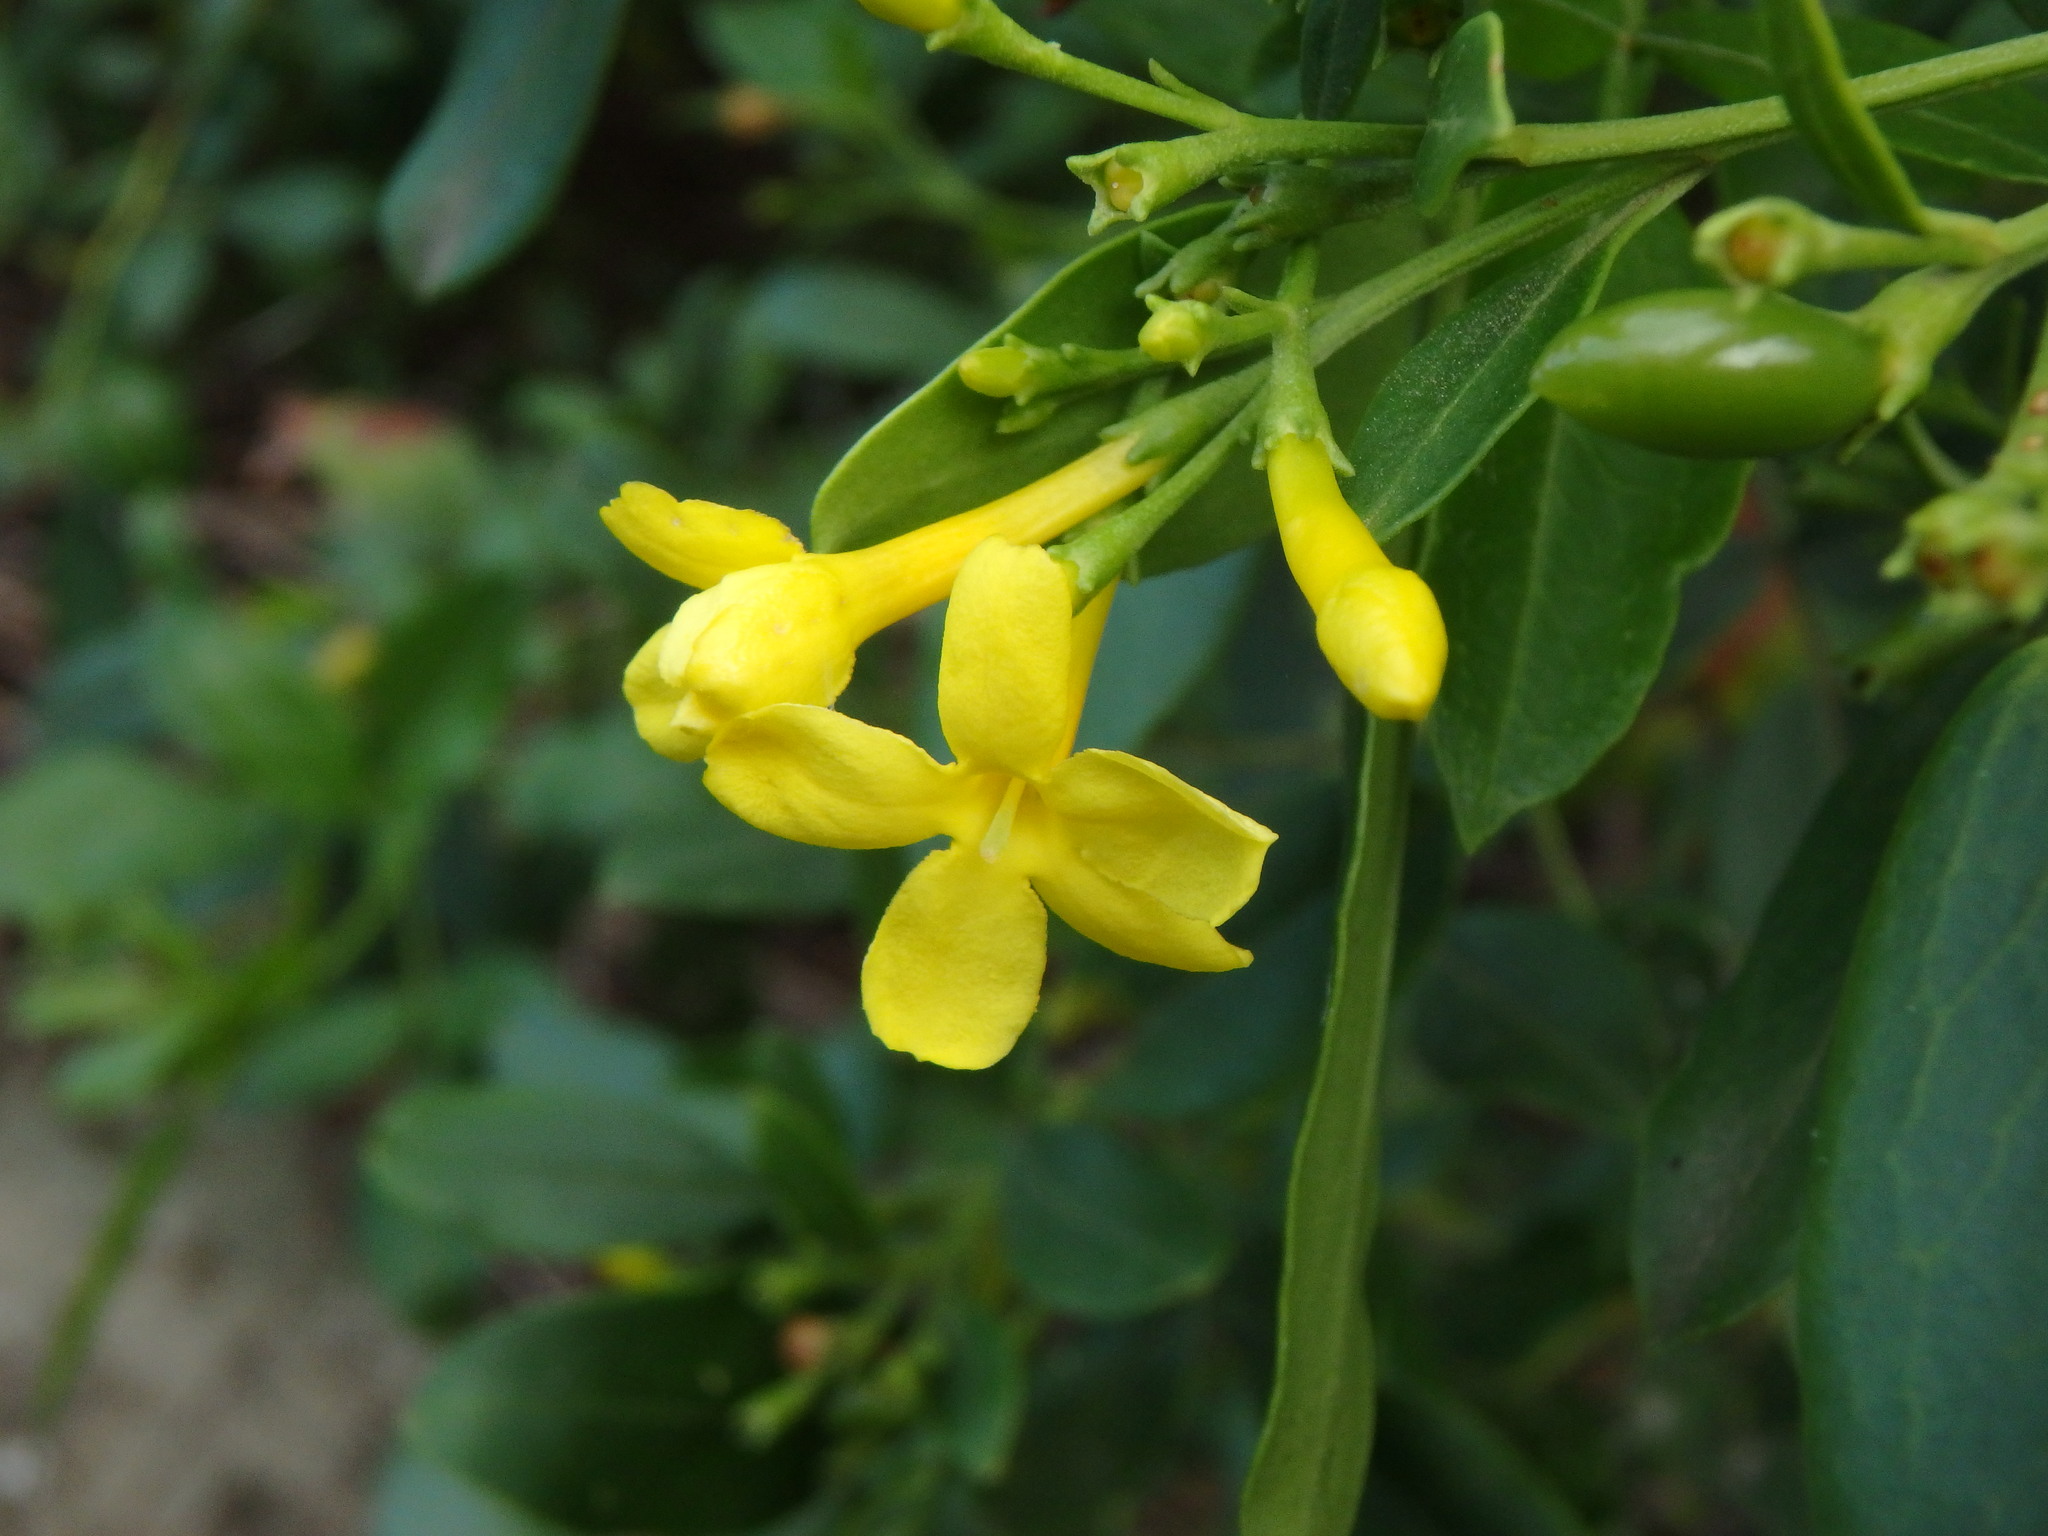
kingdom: Plantae
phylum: Tracheophyta
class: Magnoliopsida
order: Lamiales
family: Oleaceae
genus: Chrysojasminum
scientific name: Chrysojasminum odoratissimum
